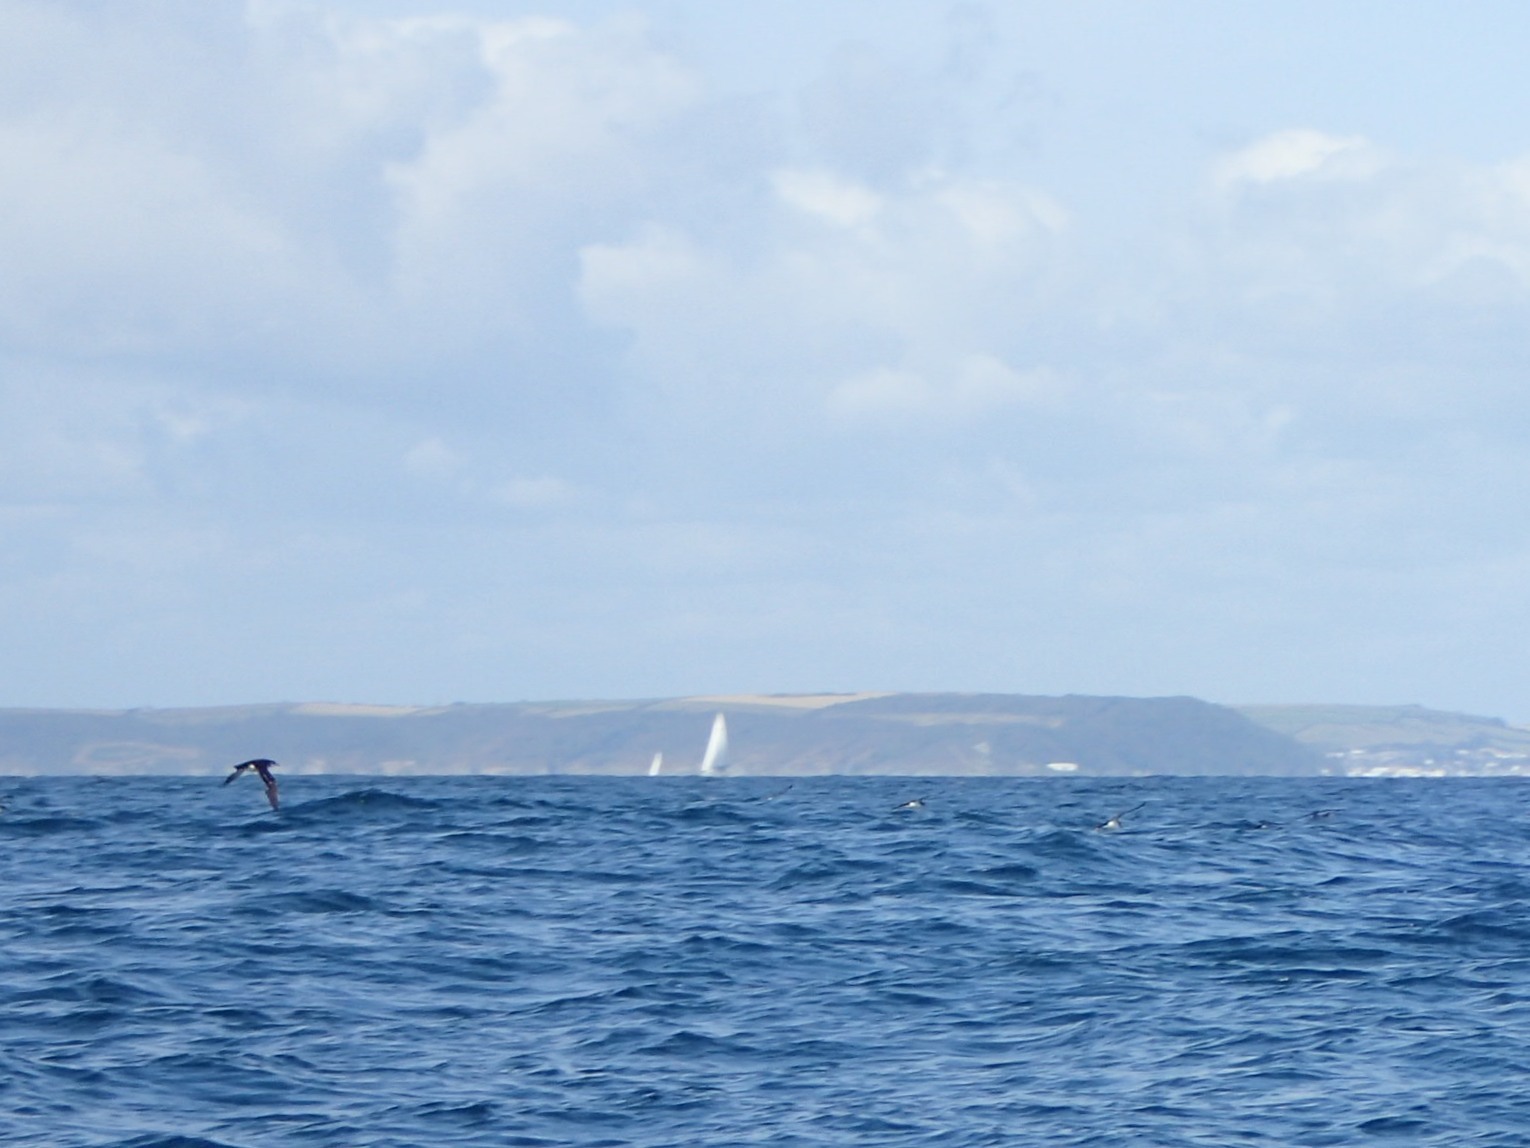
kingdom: Animalia
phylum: Chordata
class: Aves
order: Procellariiformes
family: Procellariidae
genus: Puffinus
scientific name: Puffinus puffinus
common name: Manx shearwater
